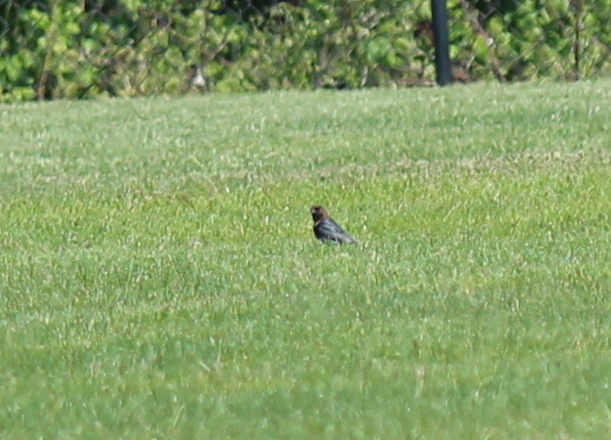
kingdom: Animalia
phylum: Chordata
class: Aves
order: Passeriformes
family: Icteridae
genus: Molothrus
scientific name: Molothrus ater
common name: Brown-headed cowbird
